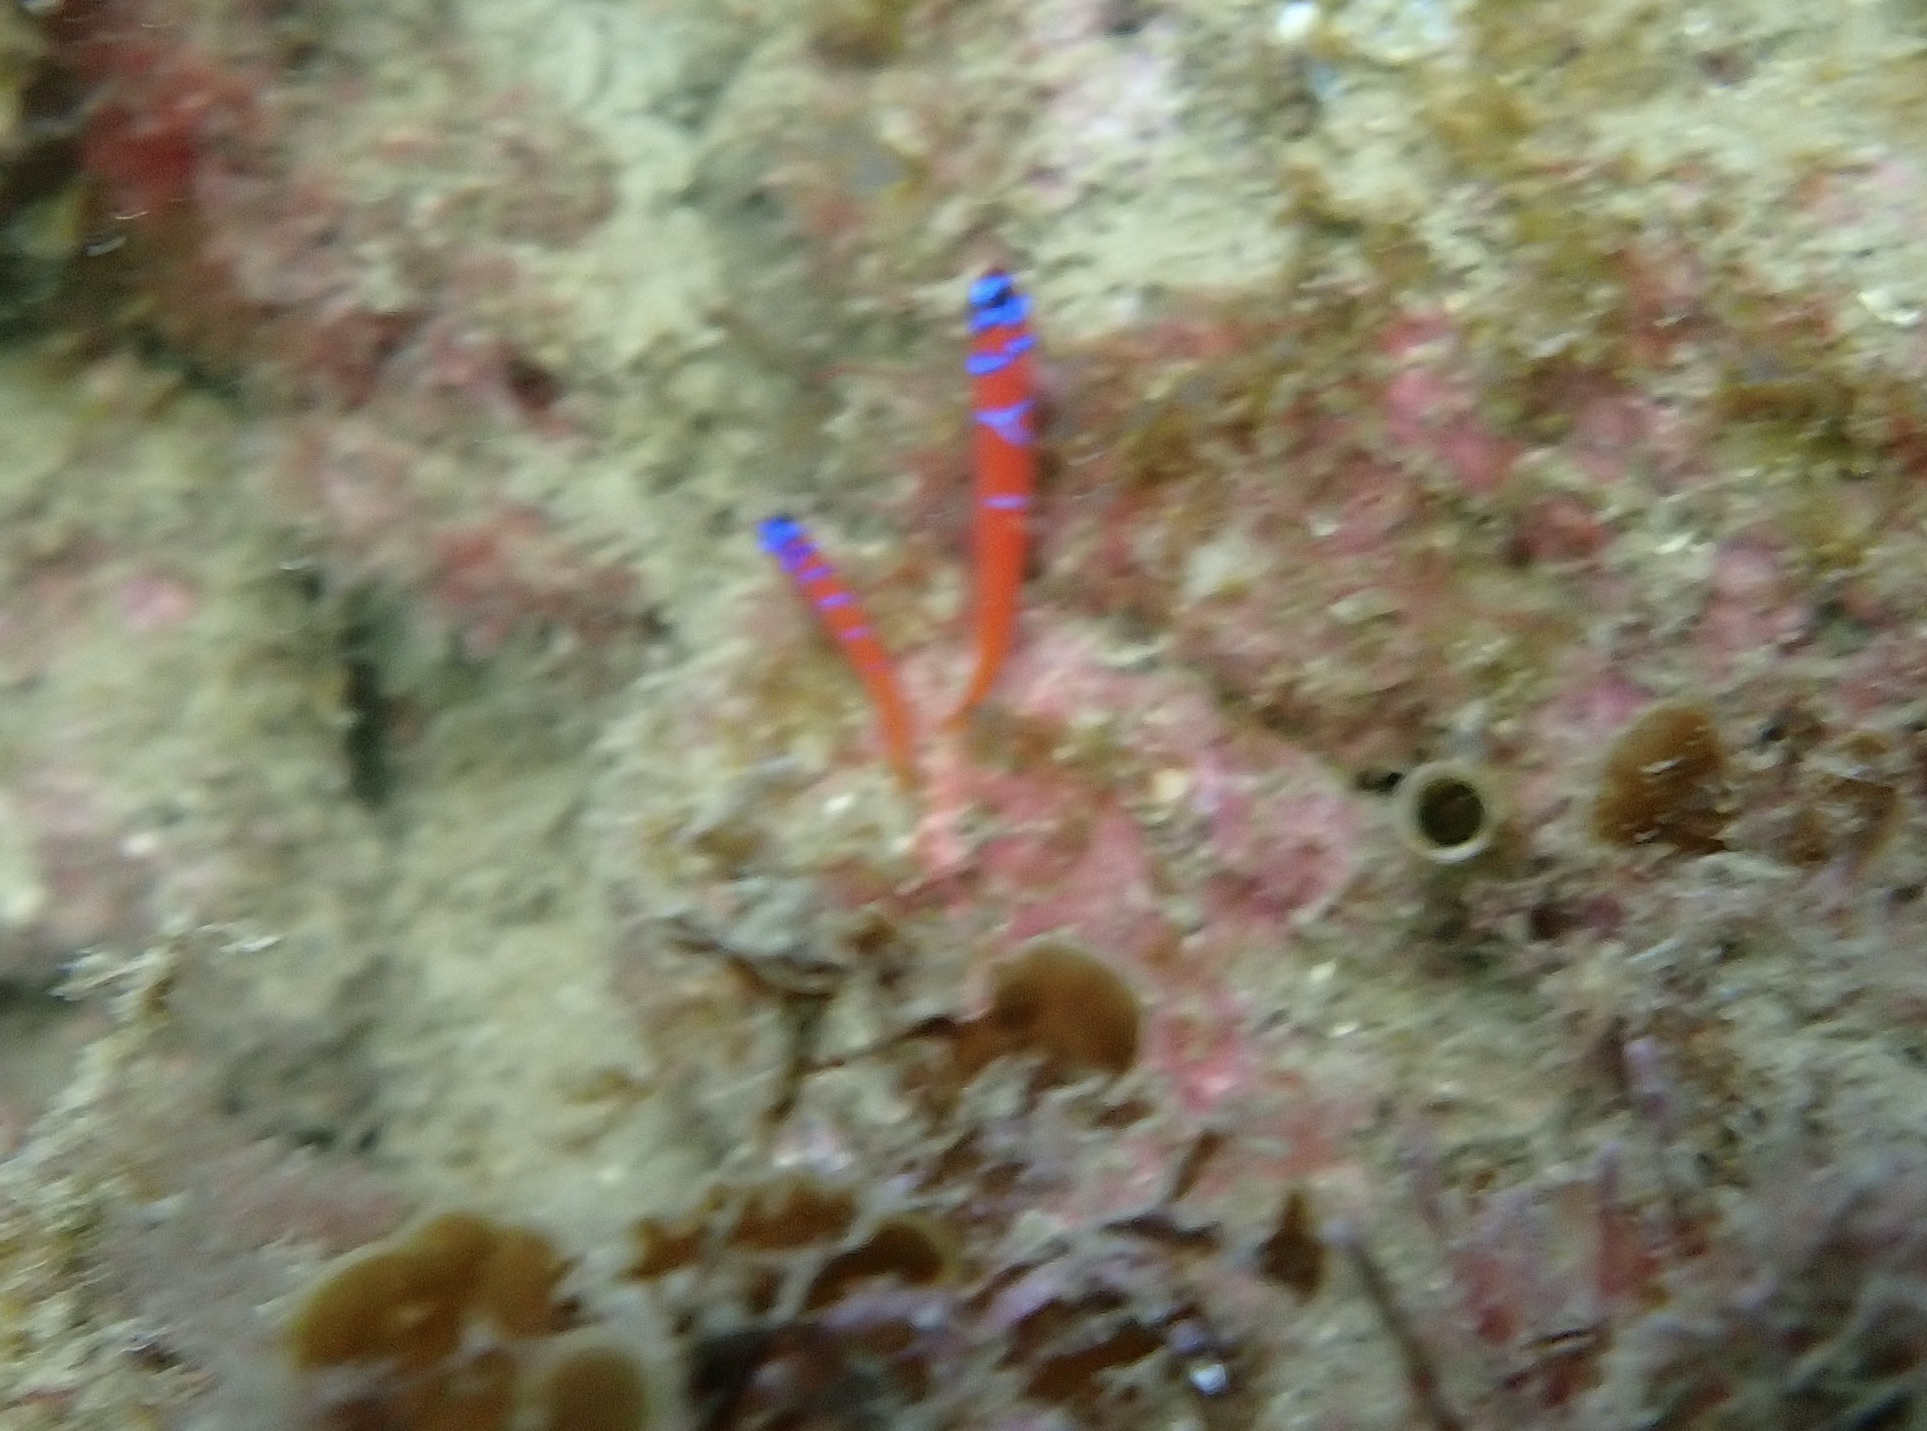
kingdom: Animalia
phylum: Chordata
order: Perciformes
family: Gobiidae
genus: Lythrypnus
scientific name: Lythrypnus dalli
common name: Bluebanded goby
